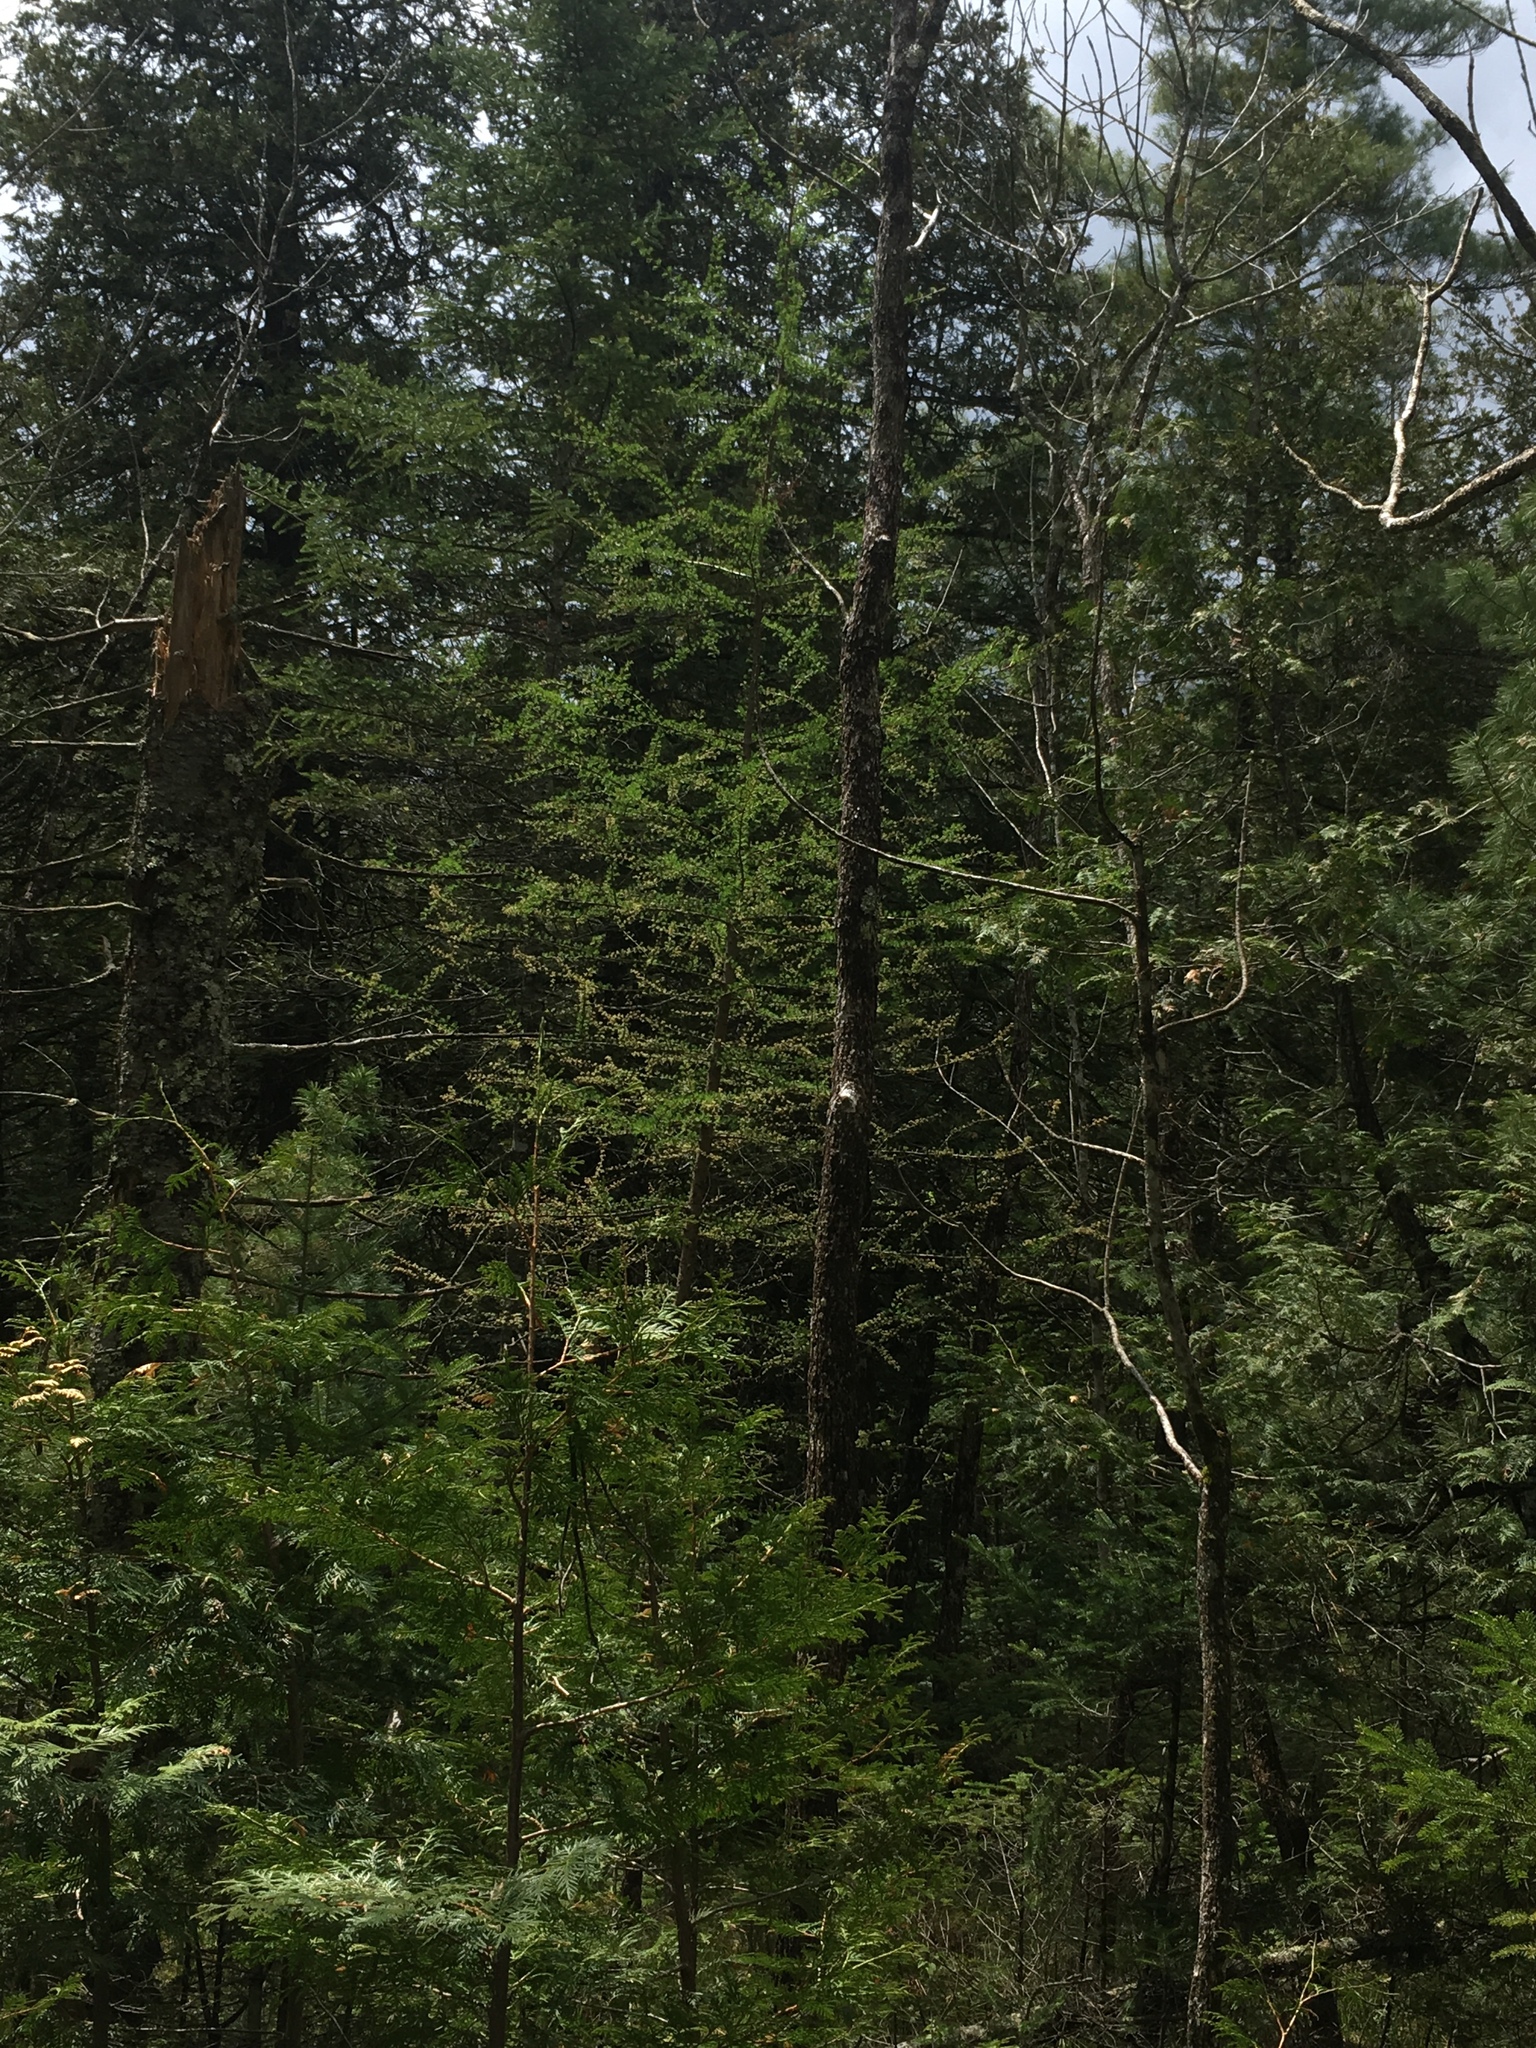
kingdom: Plantae
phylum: Tracheophyta
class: Pinopsida
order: Pinales
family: Pinaceae
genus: Larix
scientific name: Larix laricina
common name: American larch
